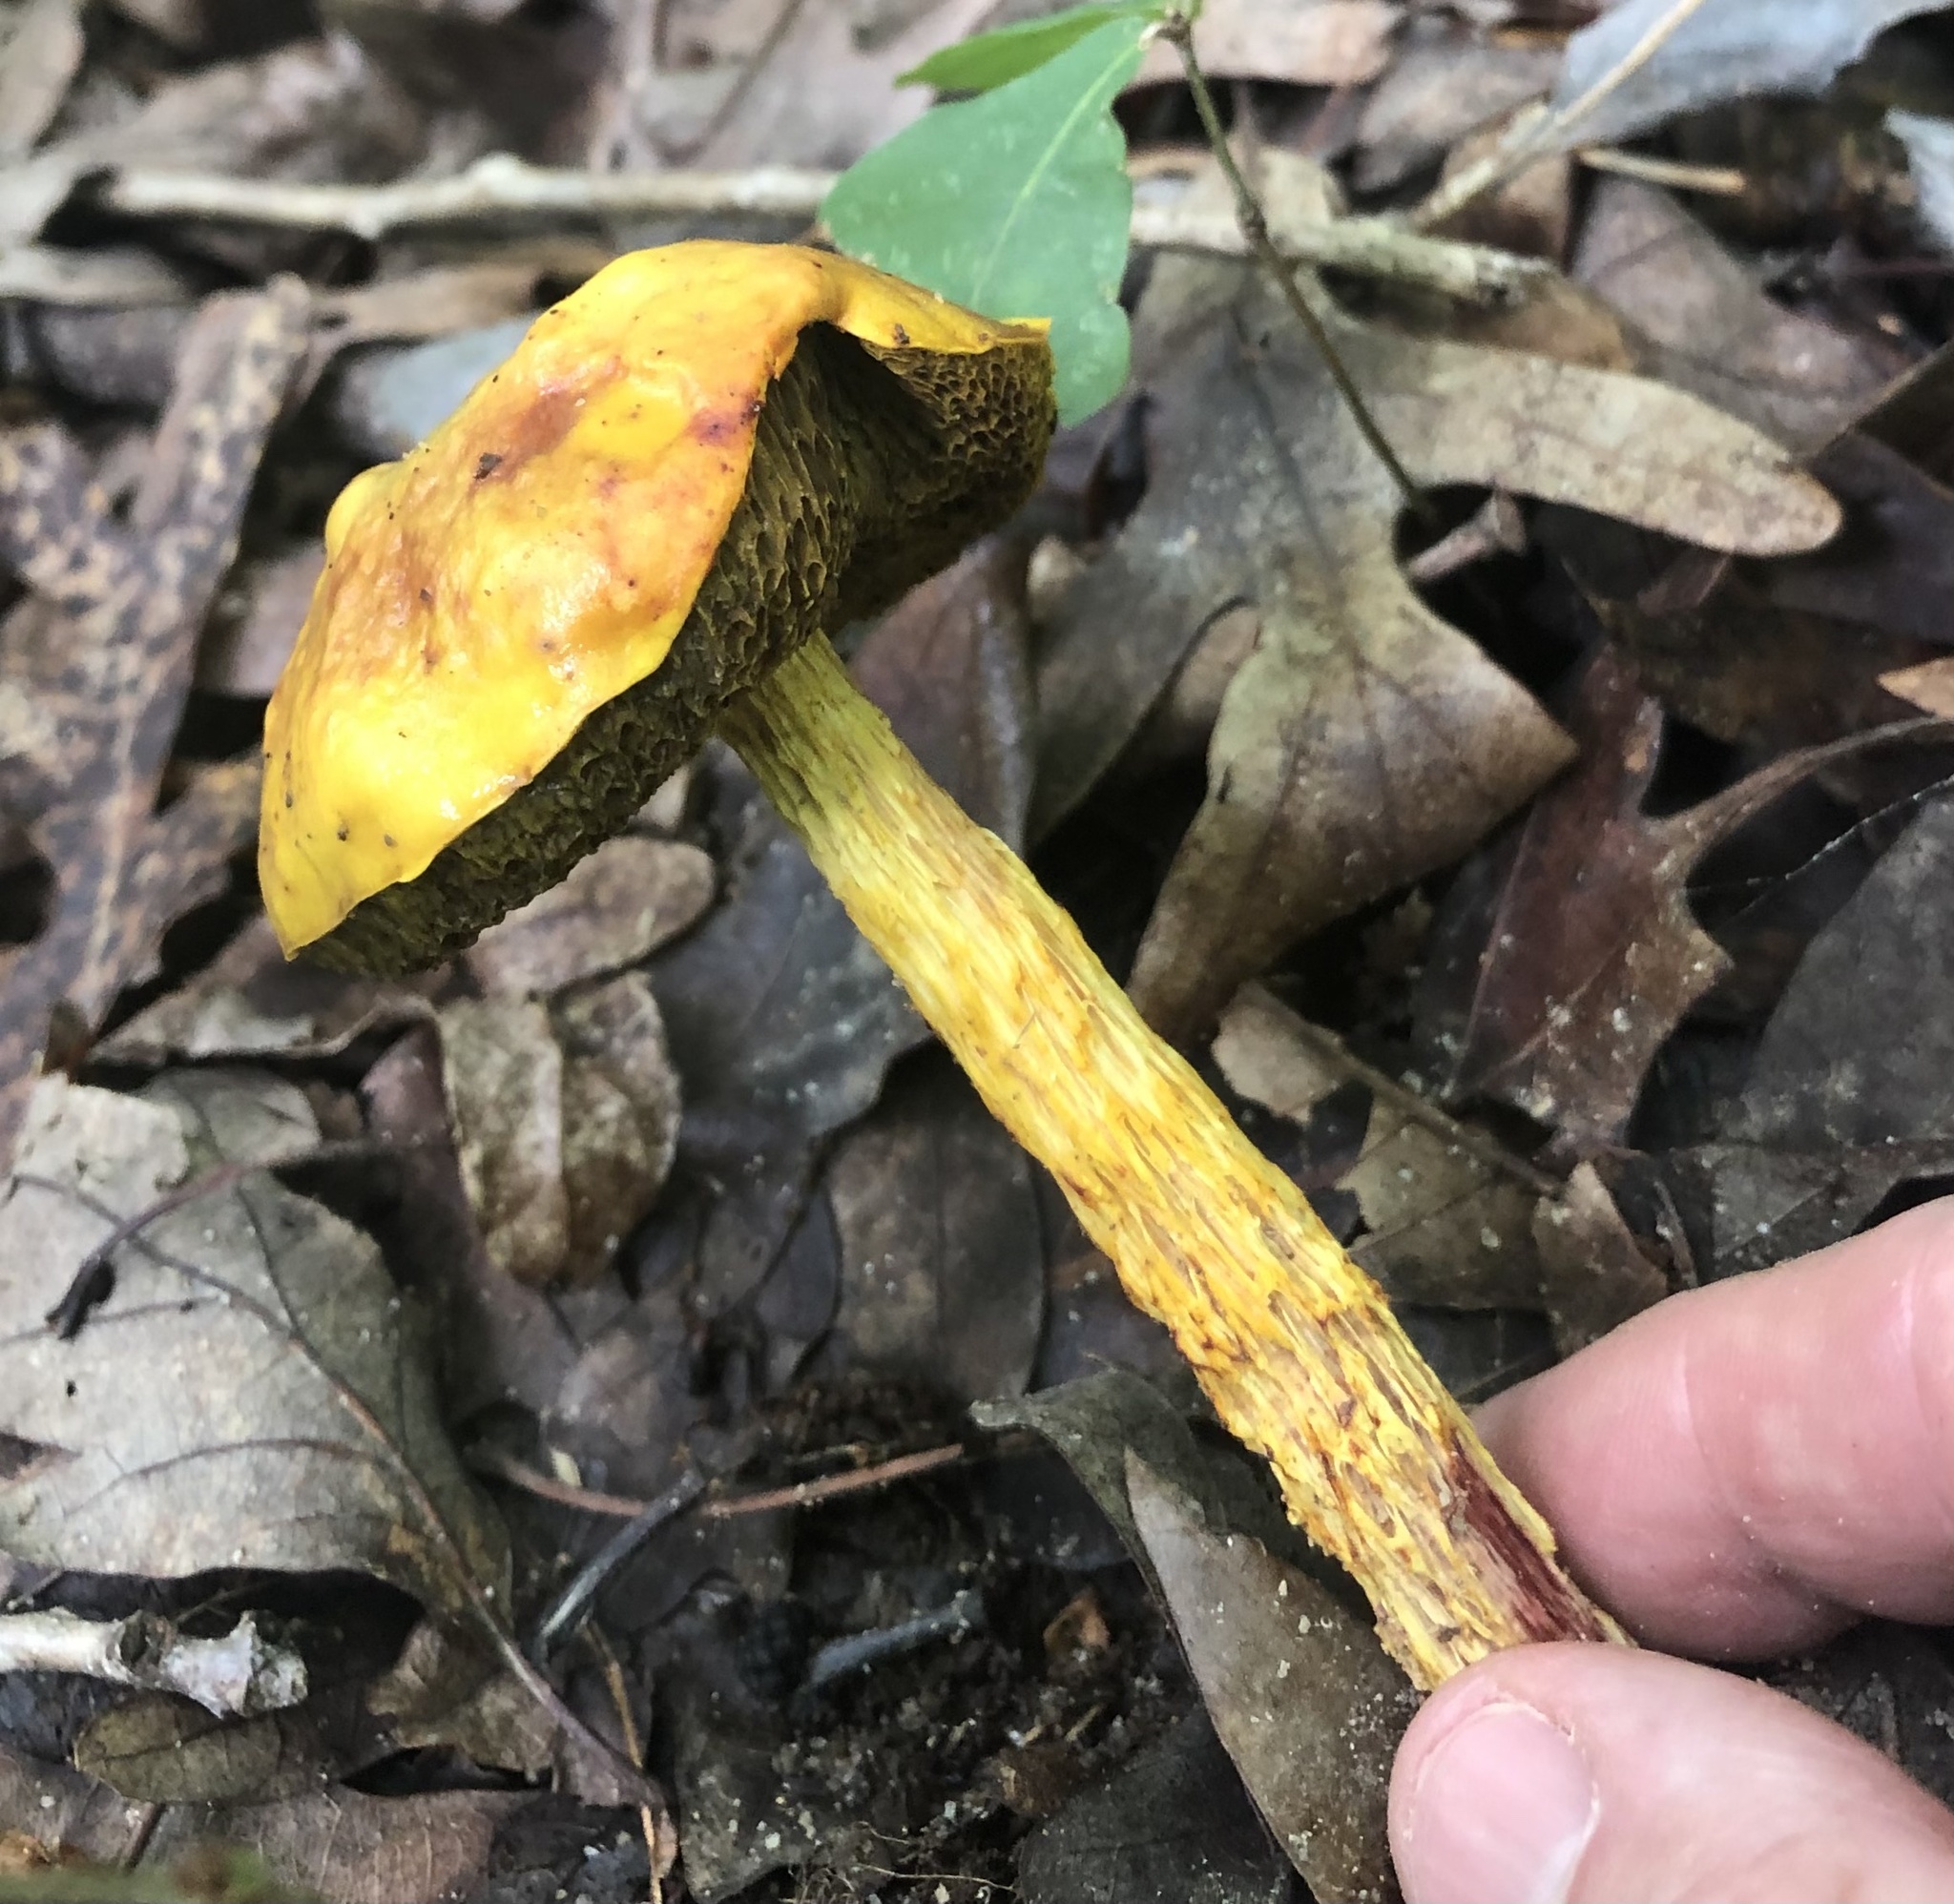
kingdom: Fungi
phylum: Basidiomycota
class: Agaricomycetes
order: Boletales
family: Boletaceae
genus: Aureoboletus
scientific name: Aureoboletus betula
